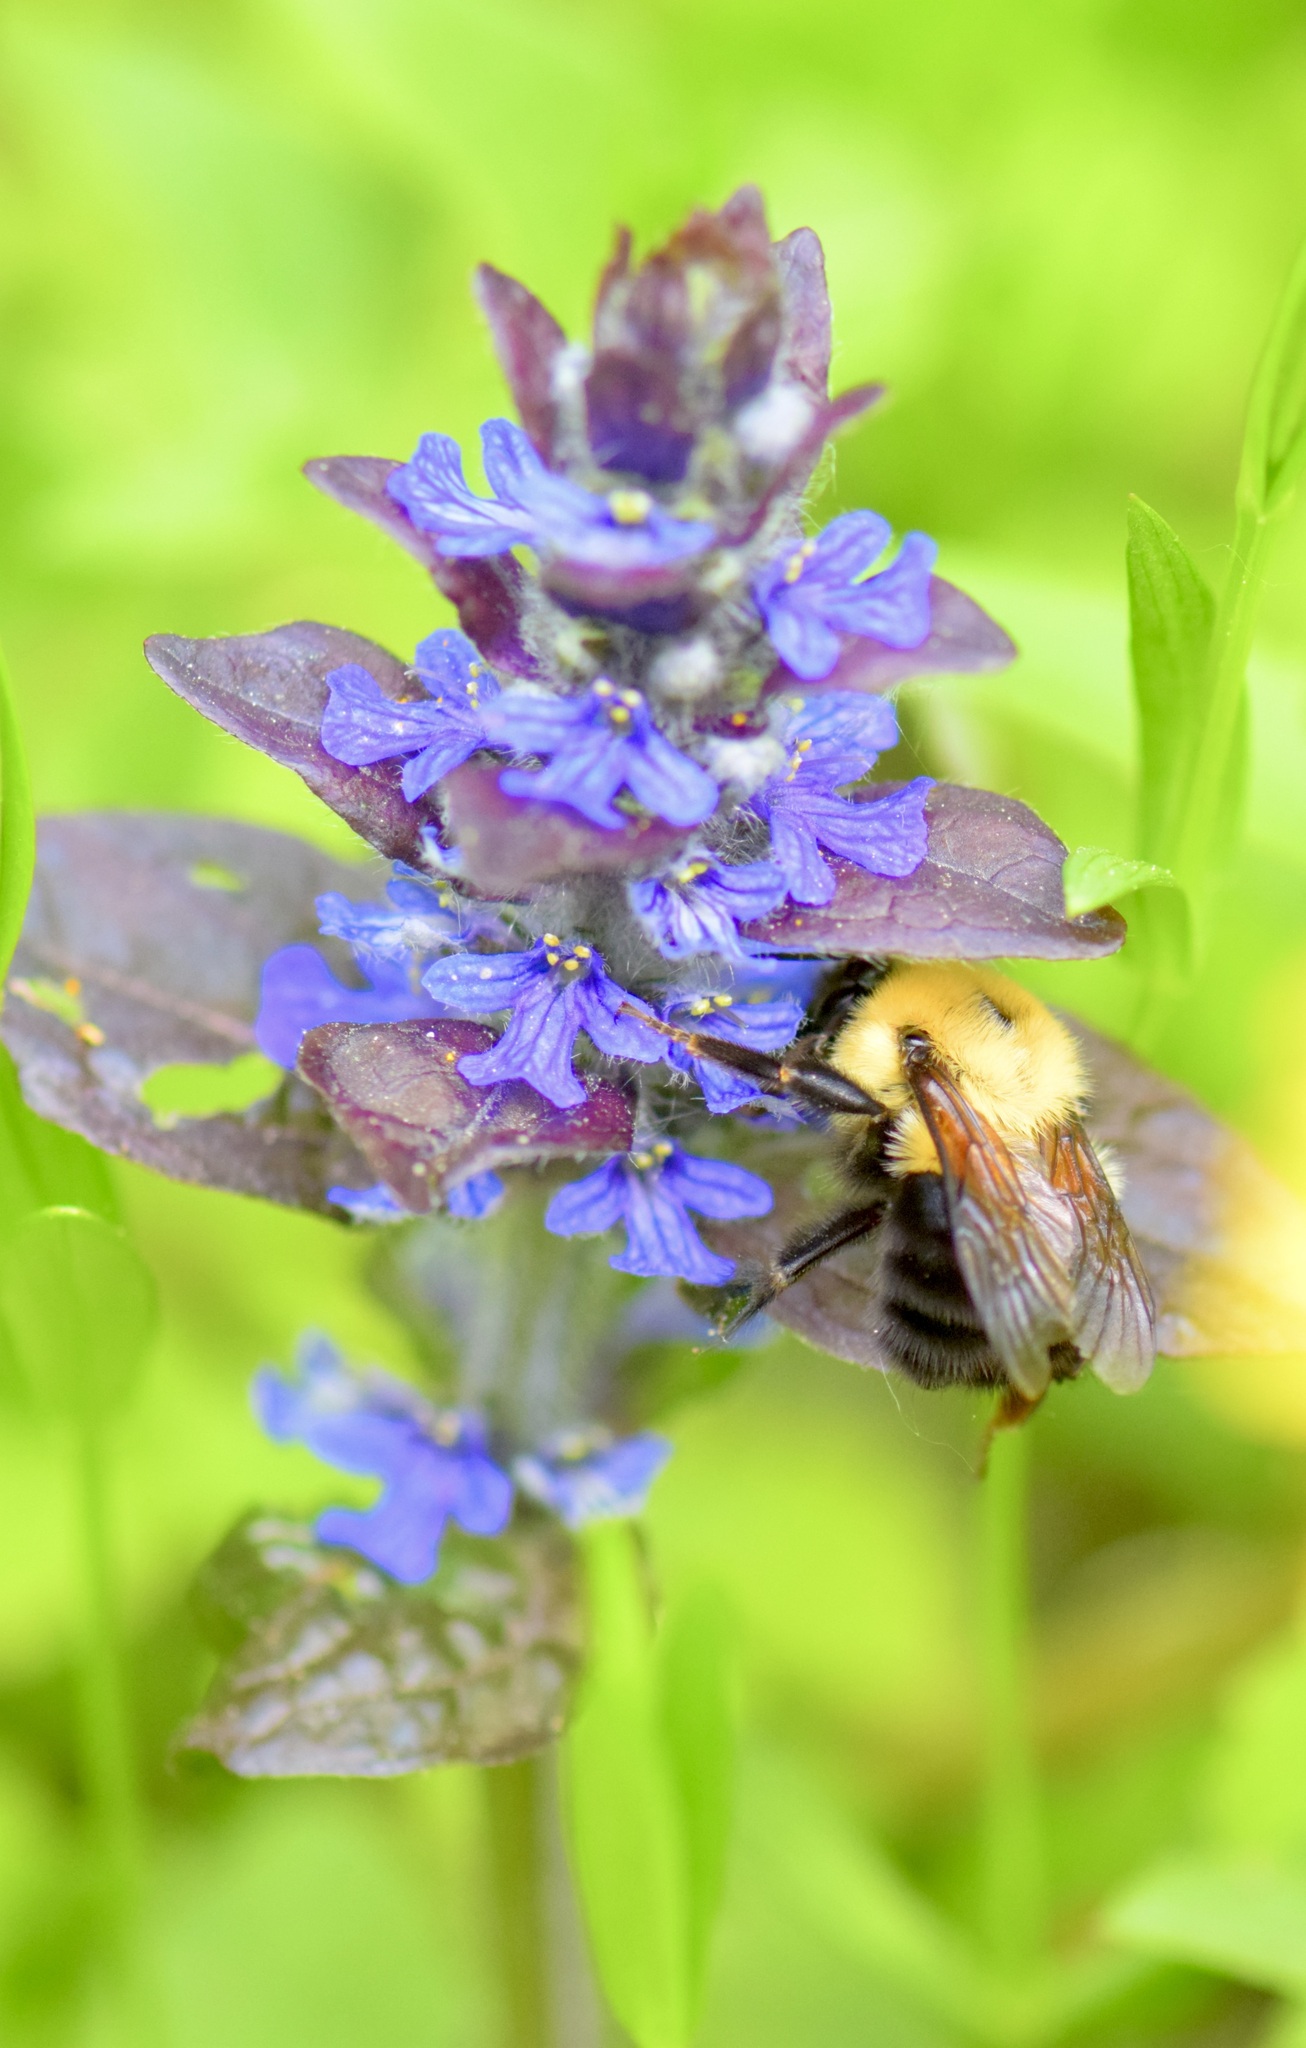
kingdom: Animalia
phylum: Arthropoda
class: Insecta
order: Hymenoptera
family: Apidae
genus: Bombus
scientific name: Bombus bimaculatus
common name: Two-spotted bumble bee
